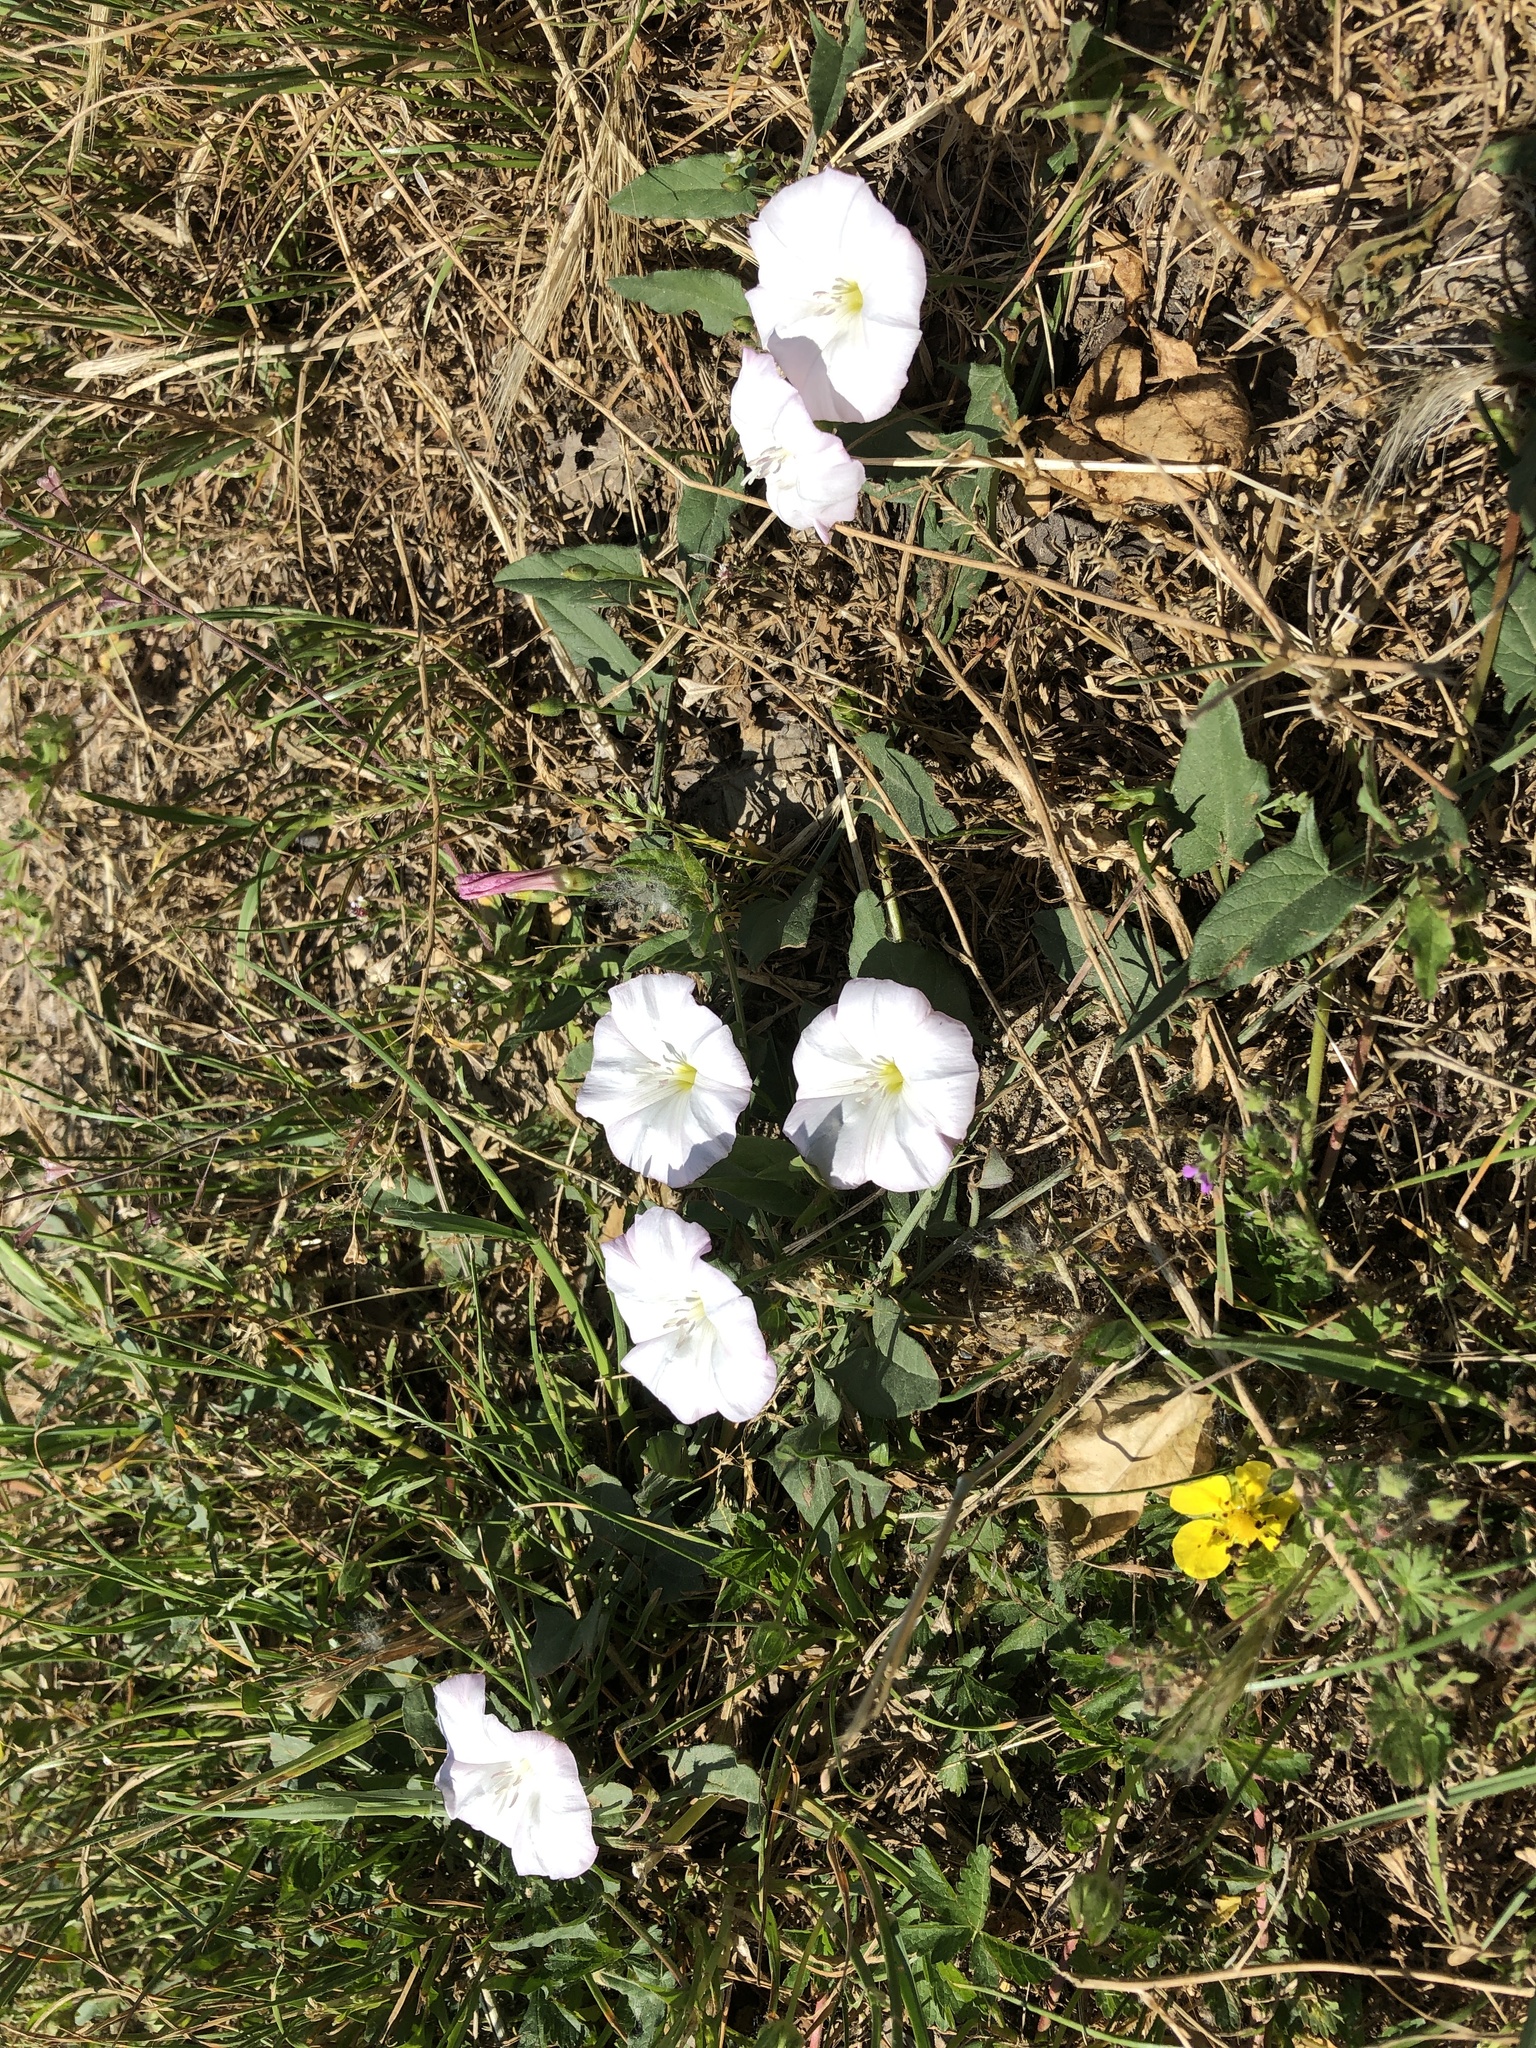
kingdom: Plantae
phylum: Tracheophyta
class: Magnoliopsida
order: Solanales
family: Convolvulaceae
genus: Convolvulus
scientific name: Convolvulus arvensis
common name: Field bindweed
